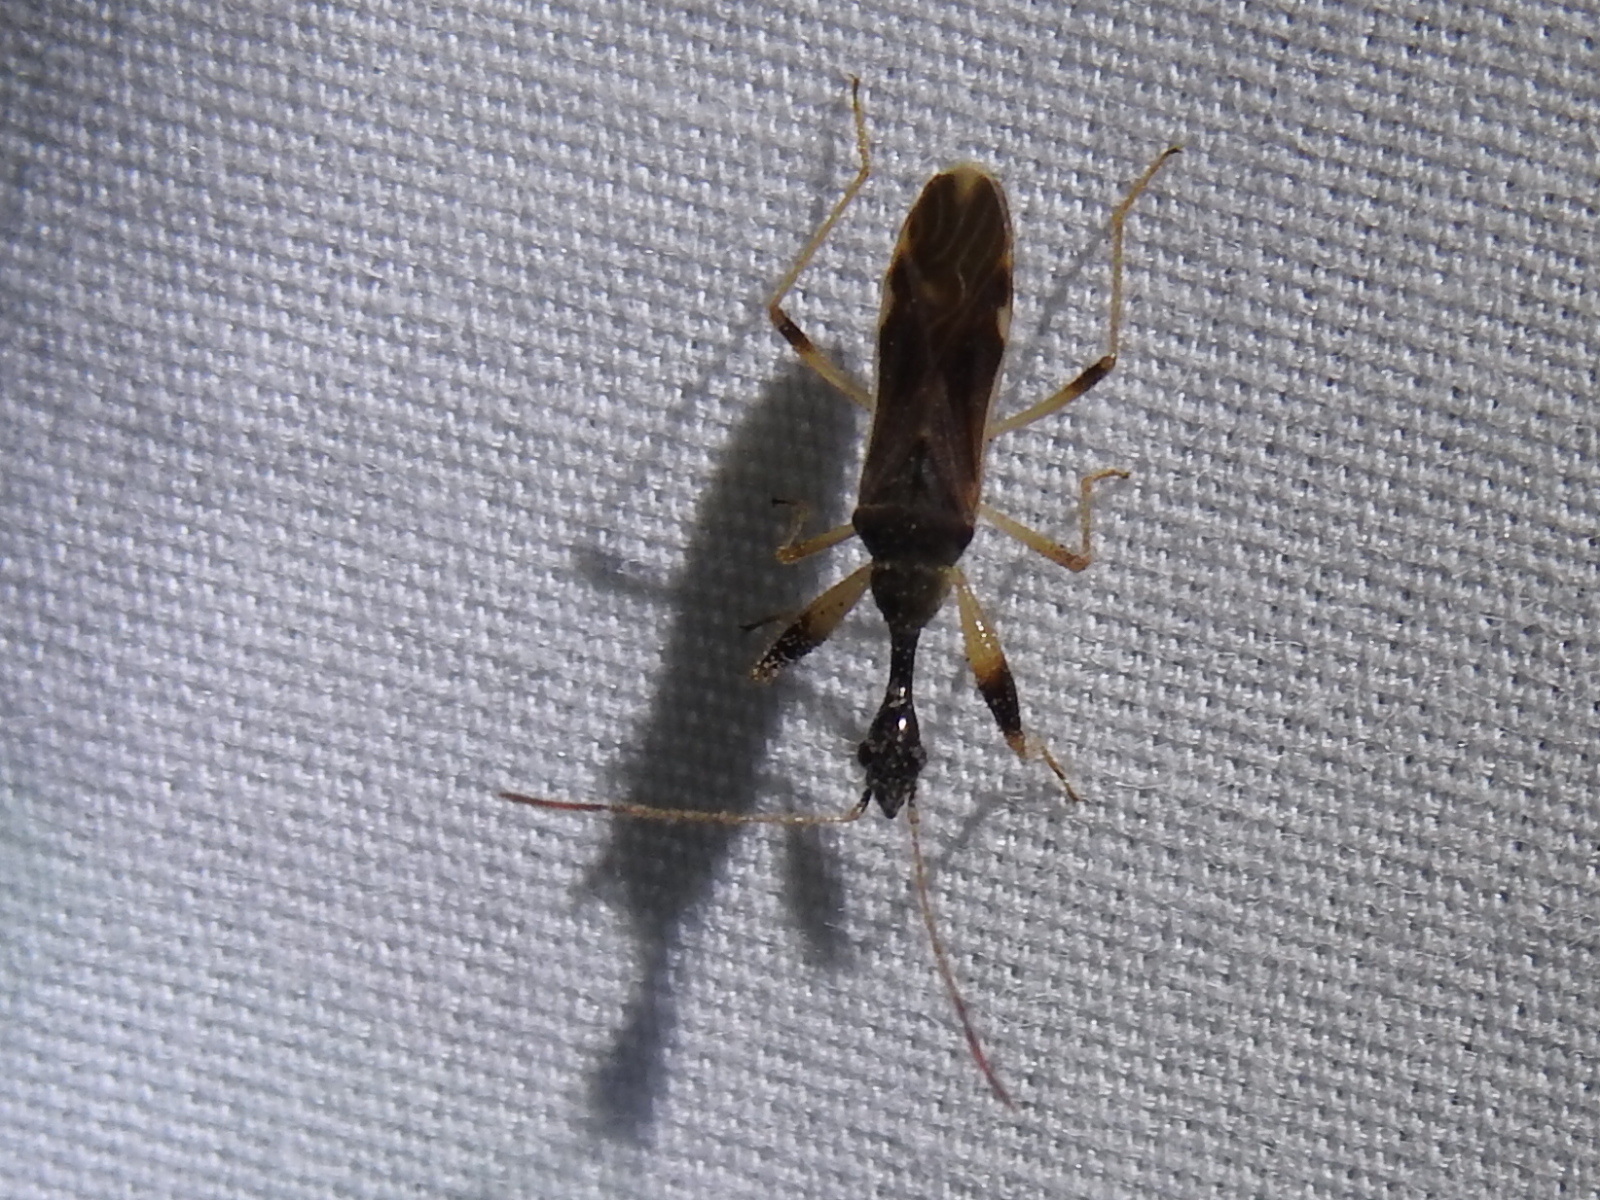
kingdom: Animalia
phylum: Arthropoda
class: Insecta
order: Hemiptera
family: Rhyparochromidae
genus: Myodocha
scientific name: Myodocha serripes
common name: Long-necked seed bug
